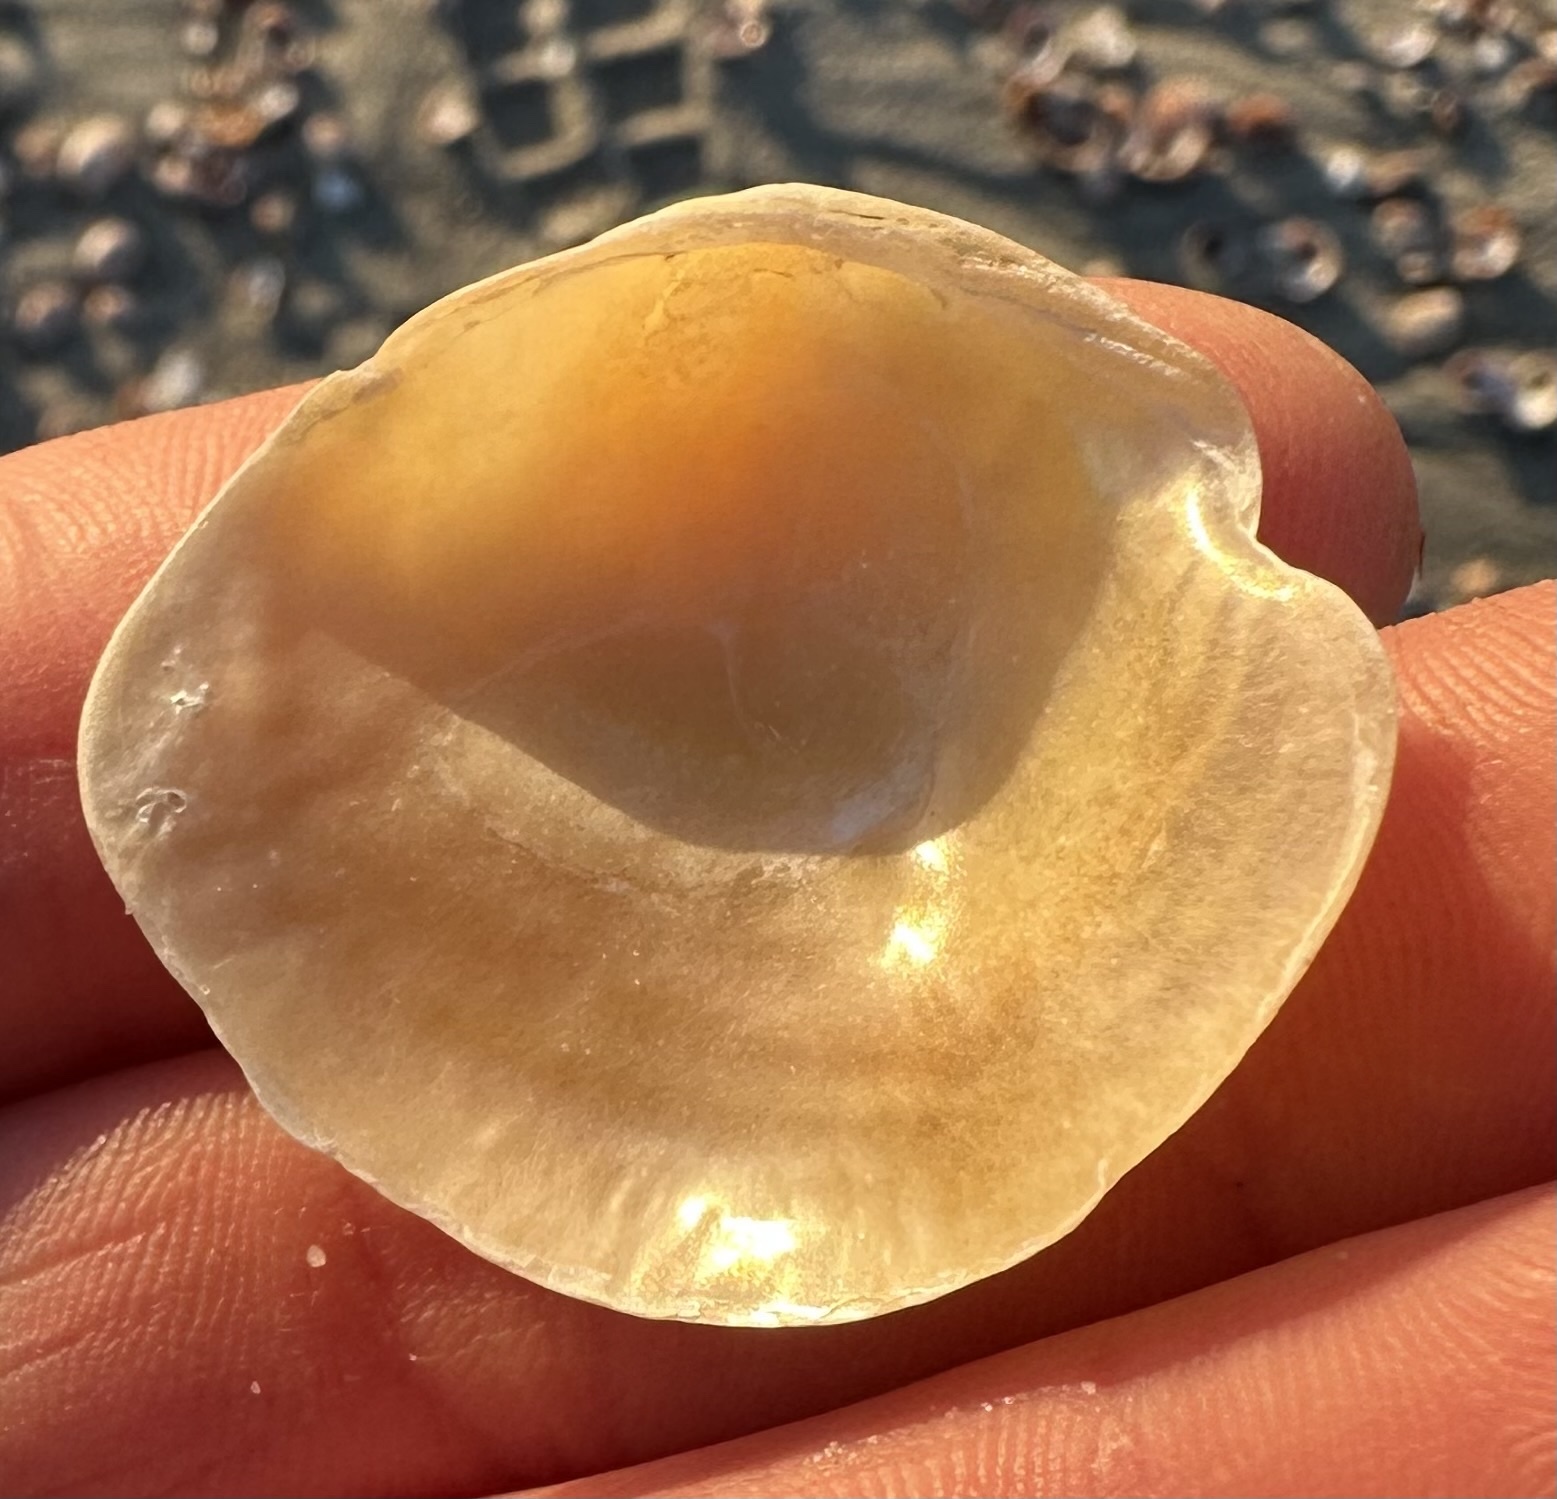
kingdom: Animalia
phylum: Mollusca
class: Bivalvia
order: Pectinida
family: Anomiidae
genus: Anomia
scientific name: Anomia simplex
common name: Common jingle shell
